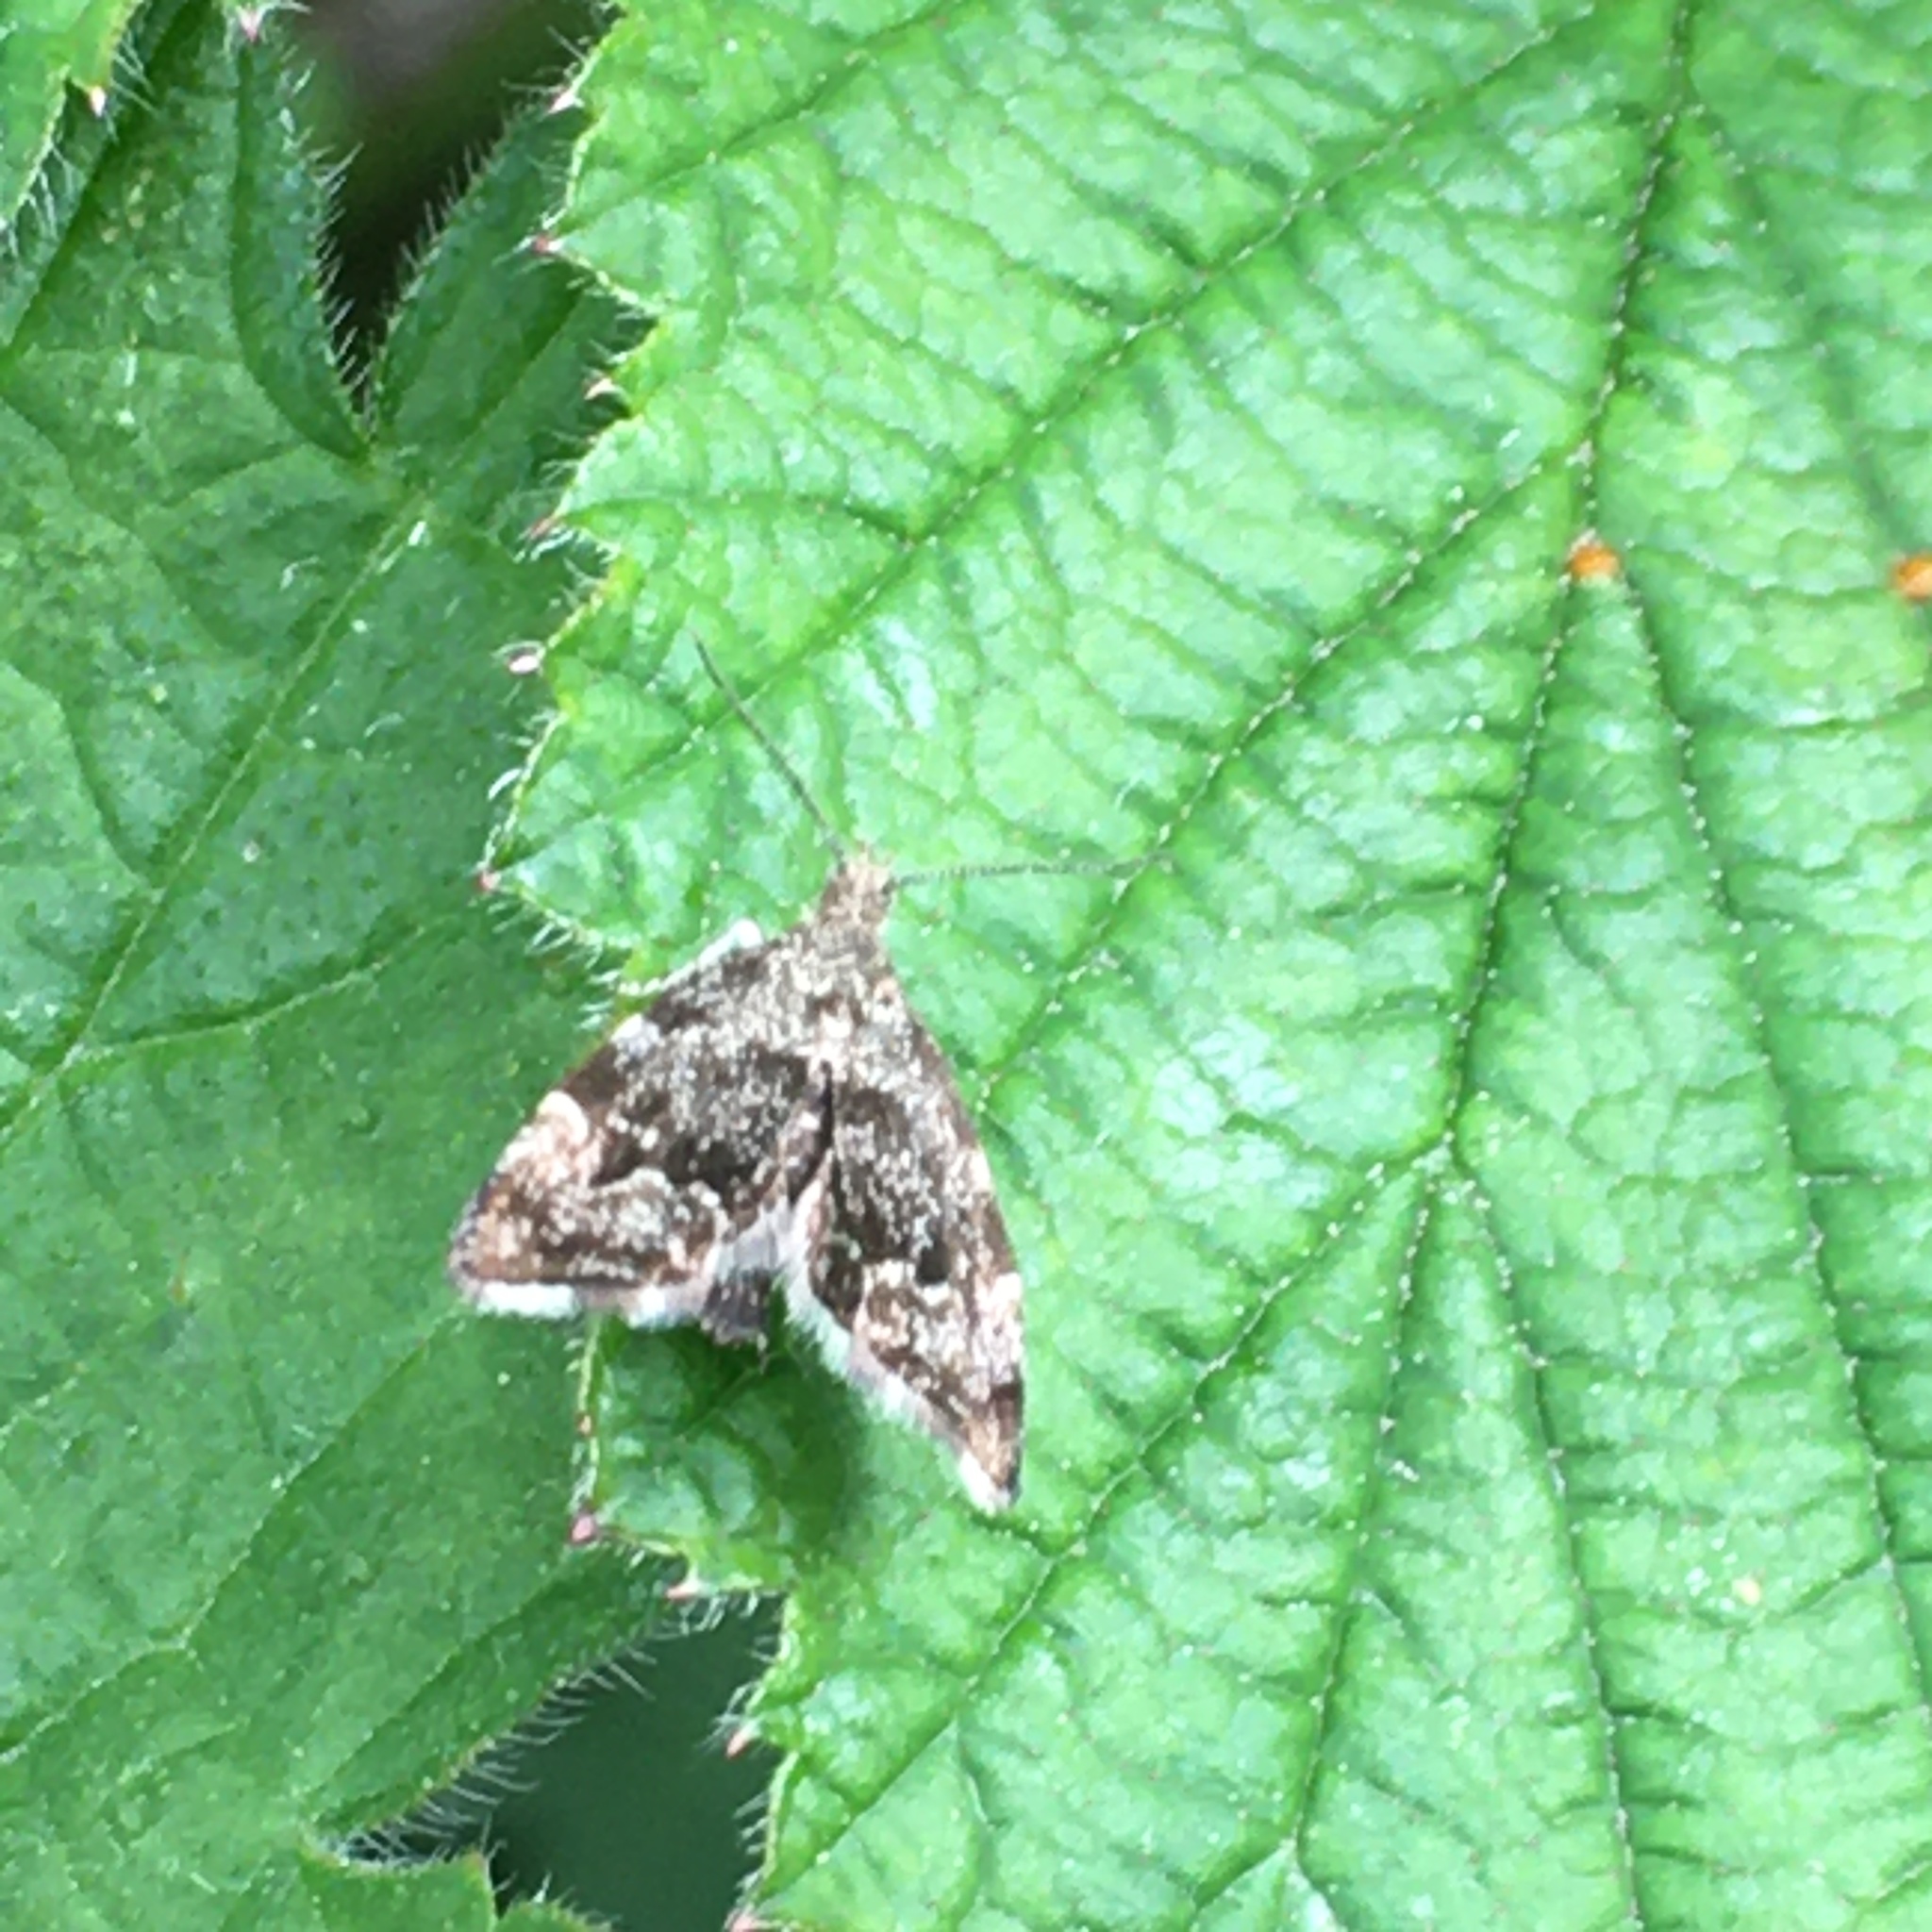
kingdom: Animalia
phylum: Arthropoda
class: Insecta
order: Lepidoptera
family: Choreutidae
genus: Anthophila
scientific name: Anthophila fabriciana
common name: Nettle-tap
